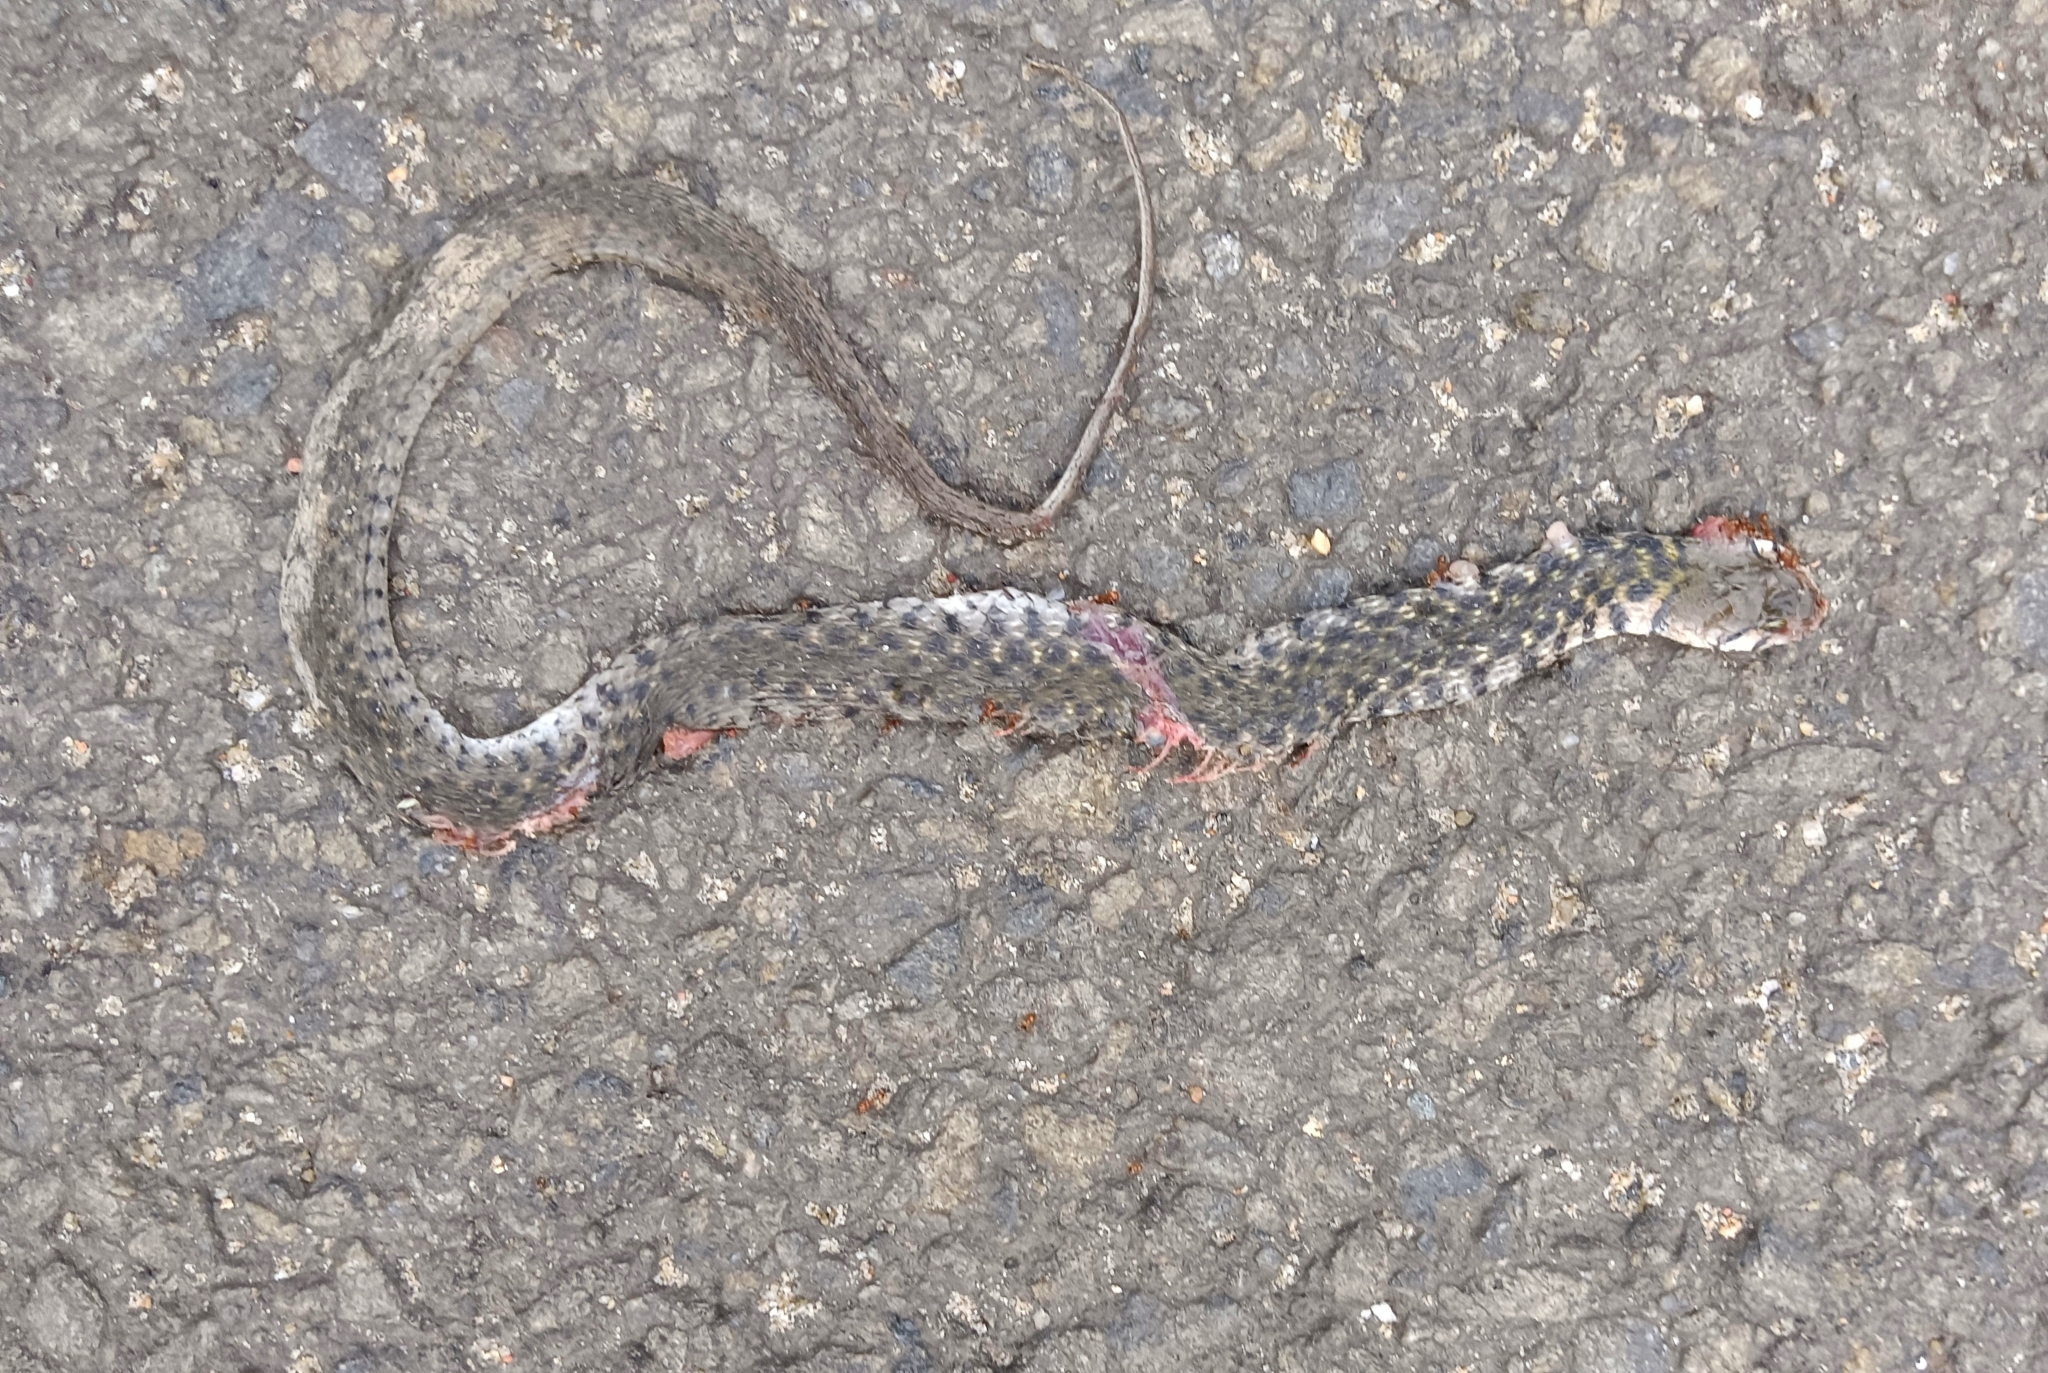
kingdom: Animalia
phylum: Chordata
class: Squamata
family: Colubridae
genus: Fowlea
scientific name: Fowlea piscator
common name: Asiatic water snake
